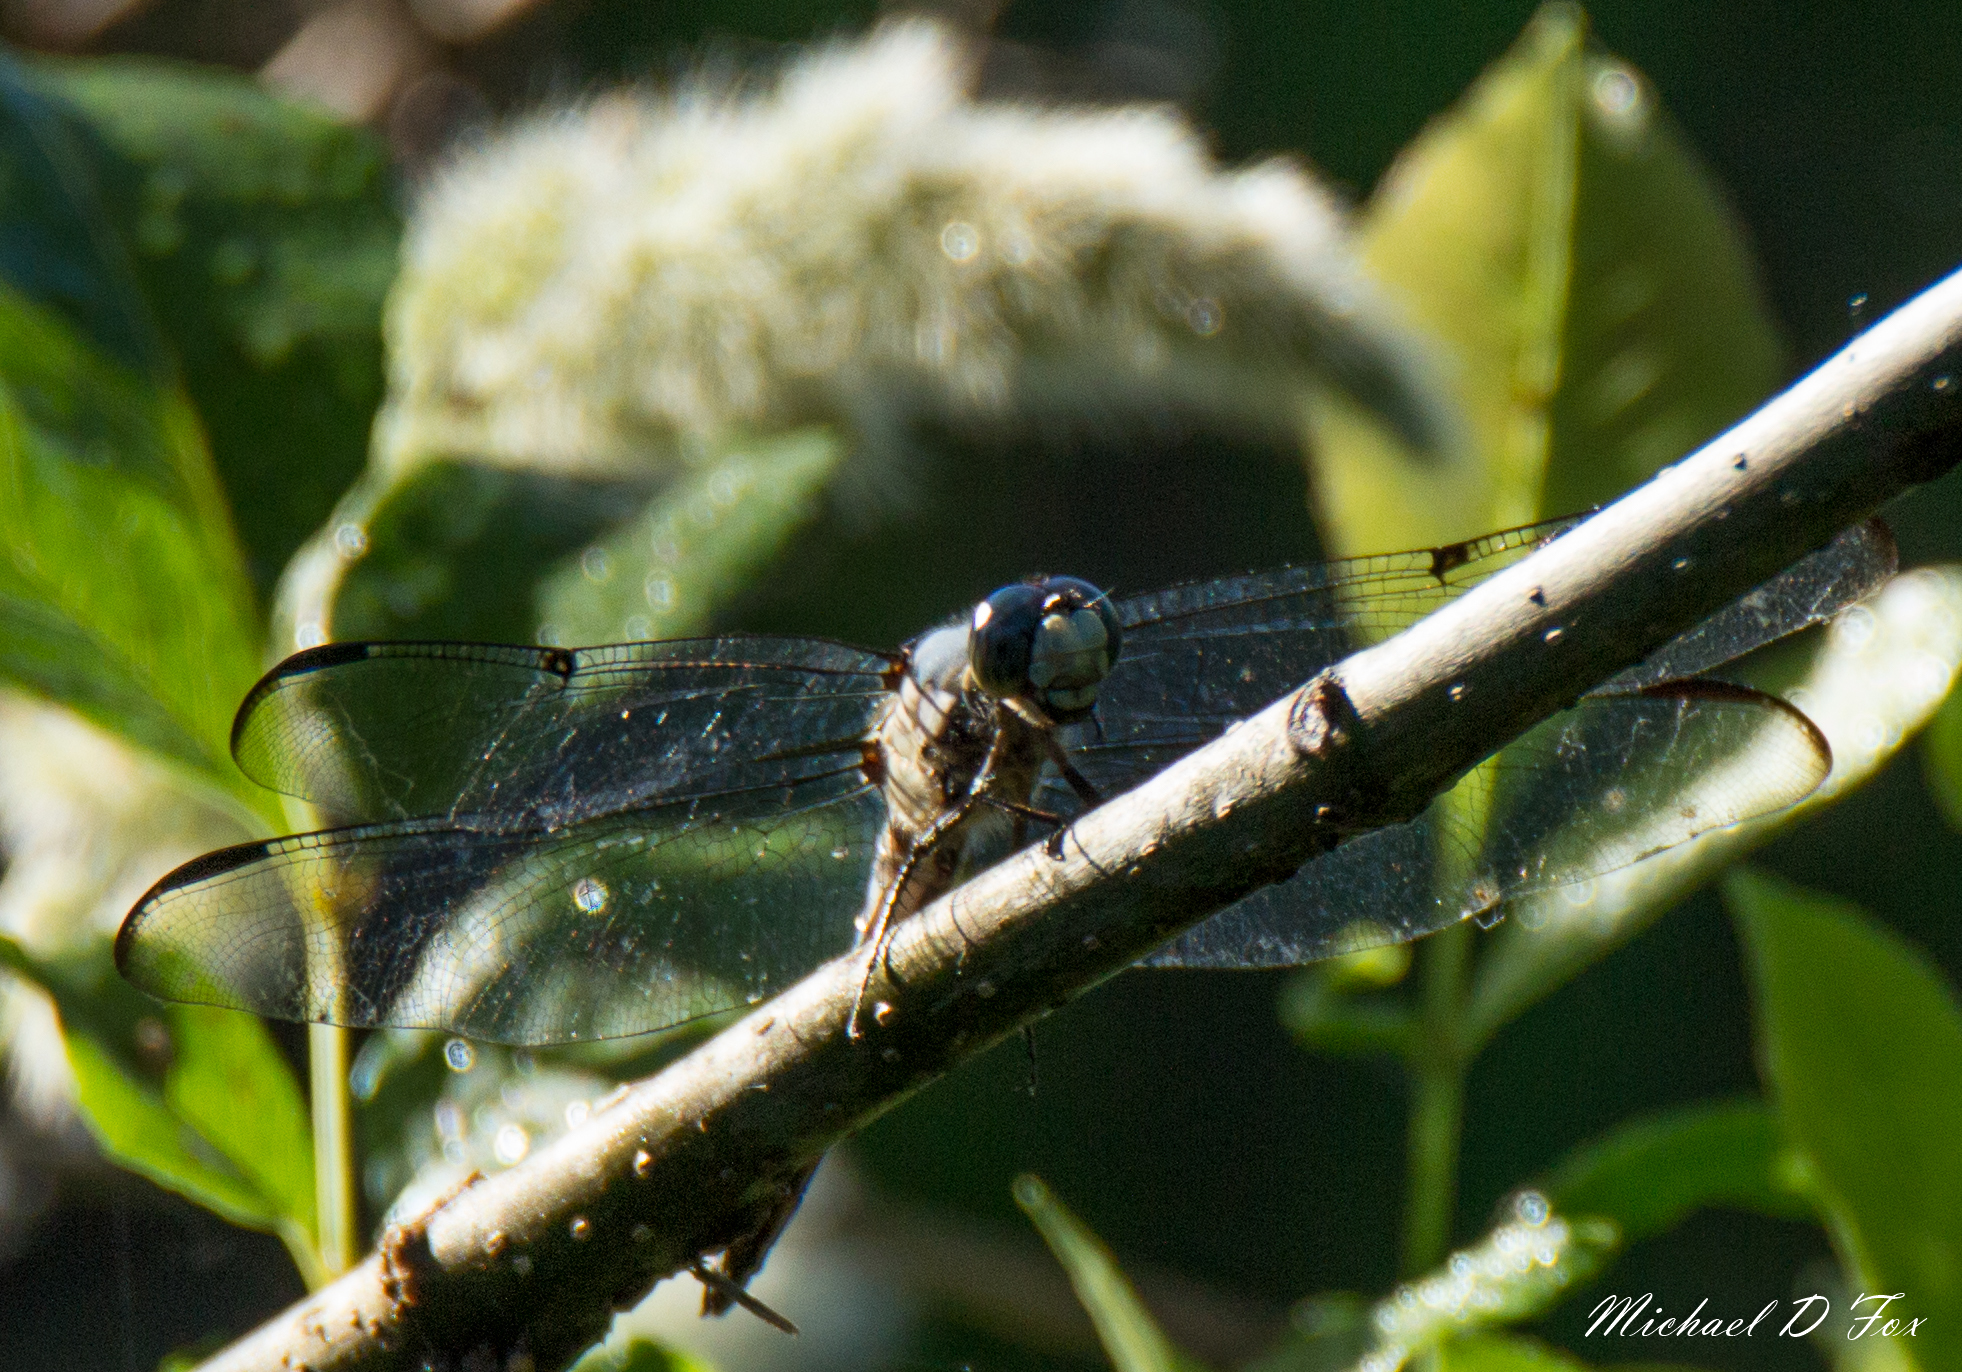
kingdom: Animalia
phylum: Arthropoda
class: Insecta
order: Odonata
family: Libellulidae
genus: Libellula
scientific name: Libellula vibrans
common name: Great blue skimmer
